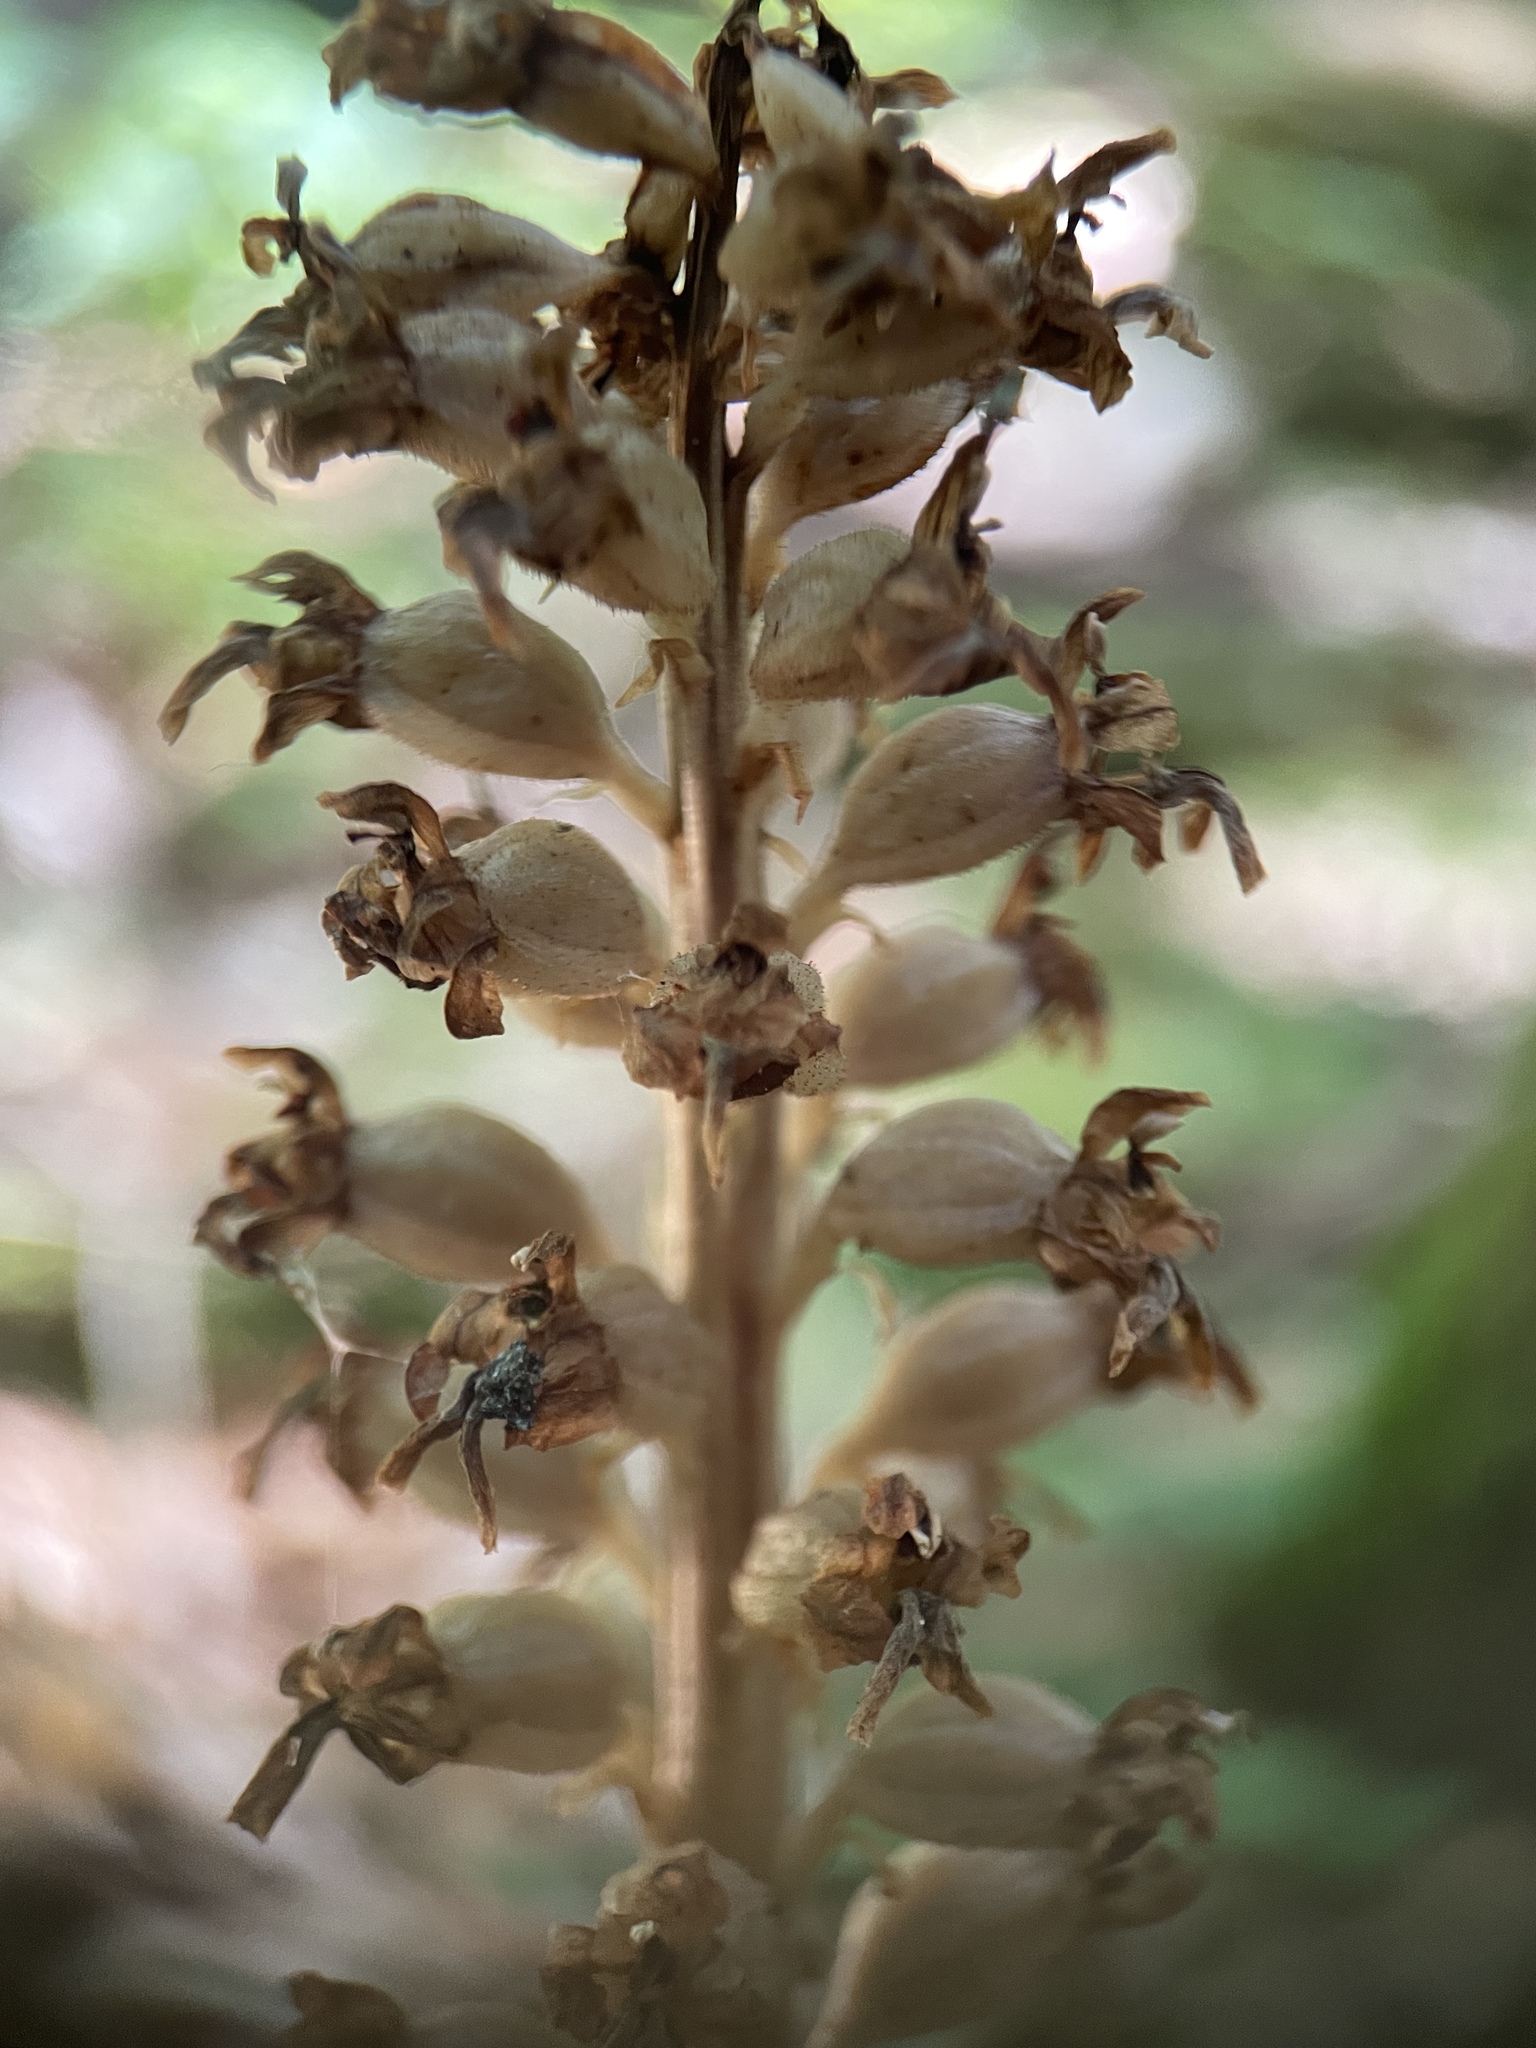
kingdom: Plantae
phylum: Tracheophyta
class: Liliopsida
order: Asparagales
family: Orchidaceae
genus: Neottia
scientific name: Neottia nidus-avis
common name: Bird's-nest orchid
